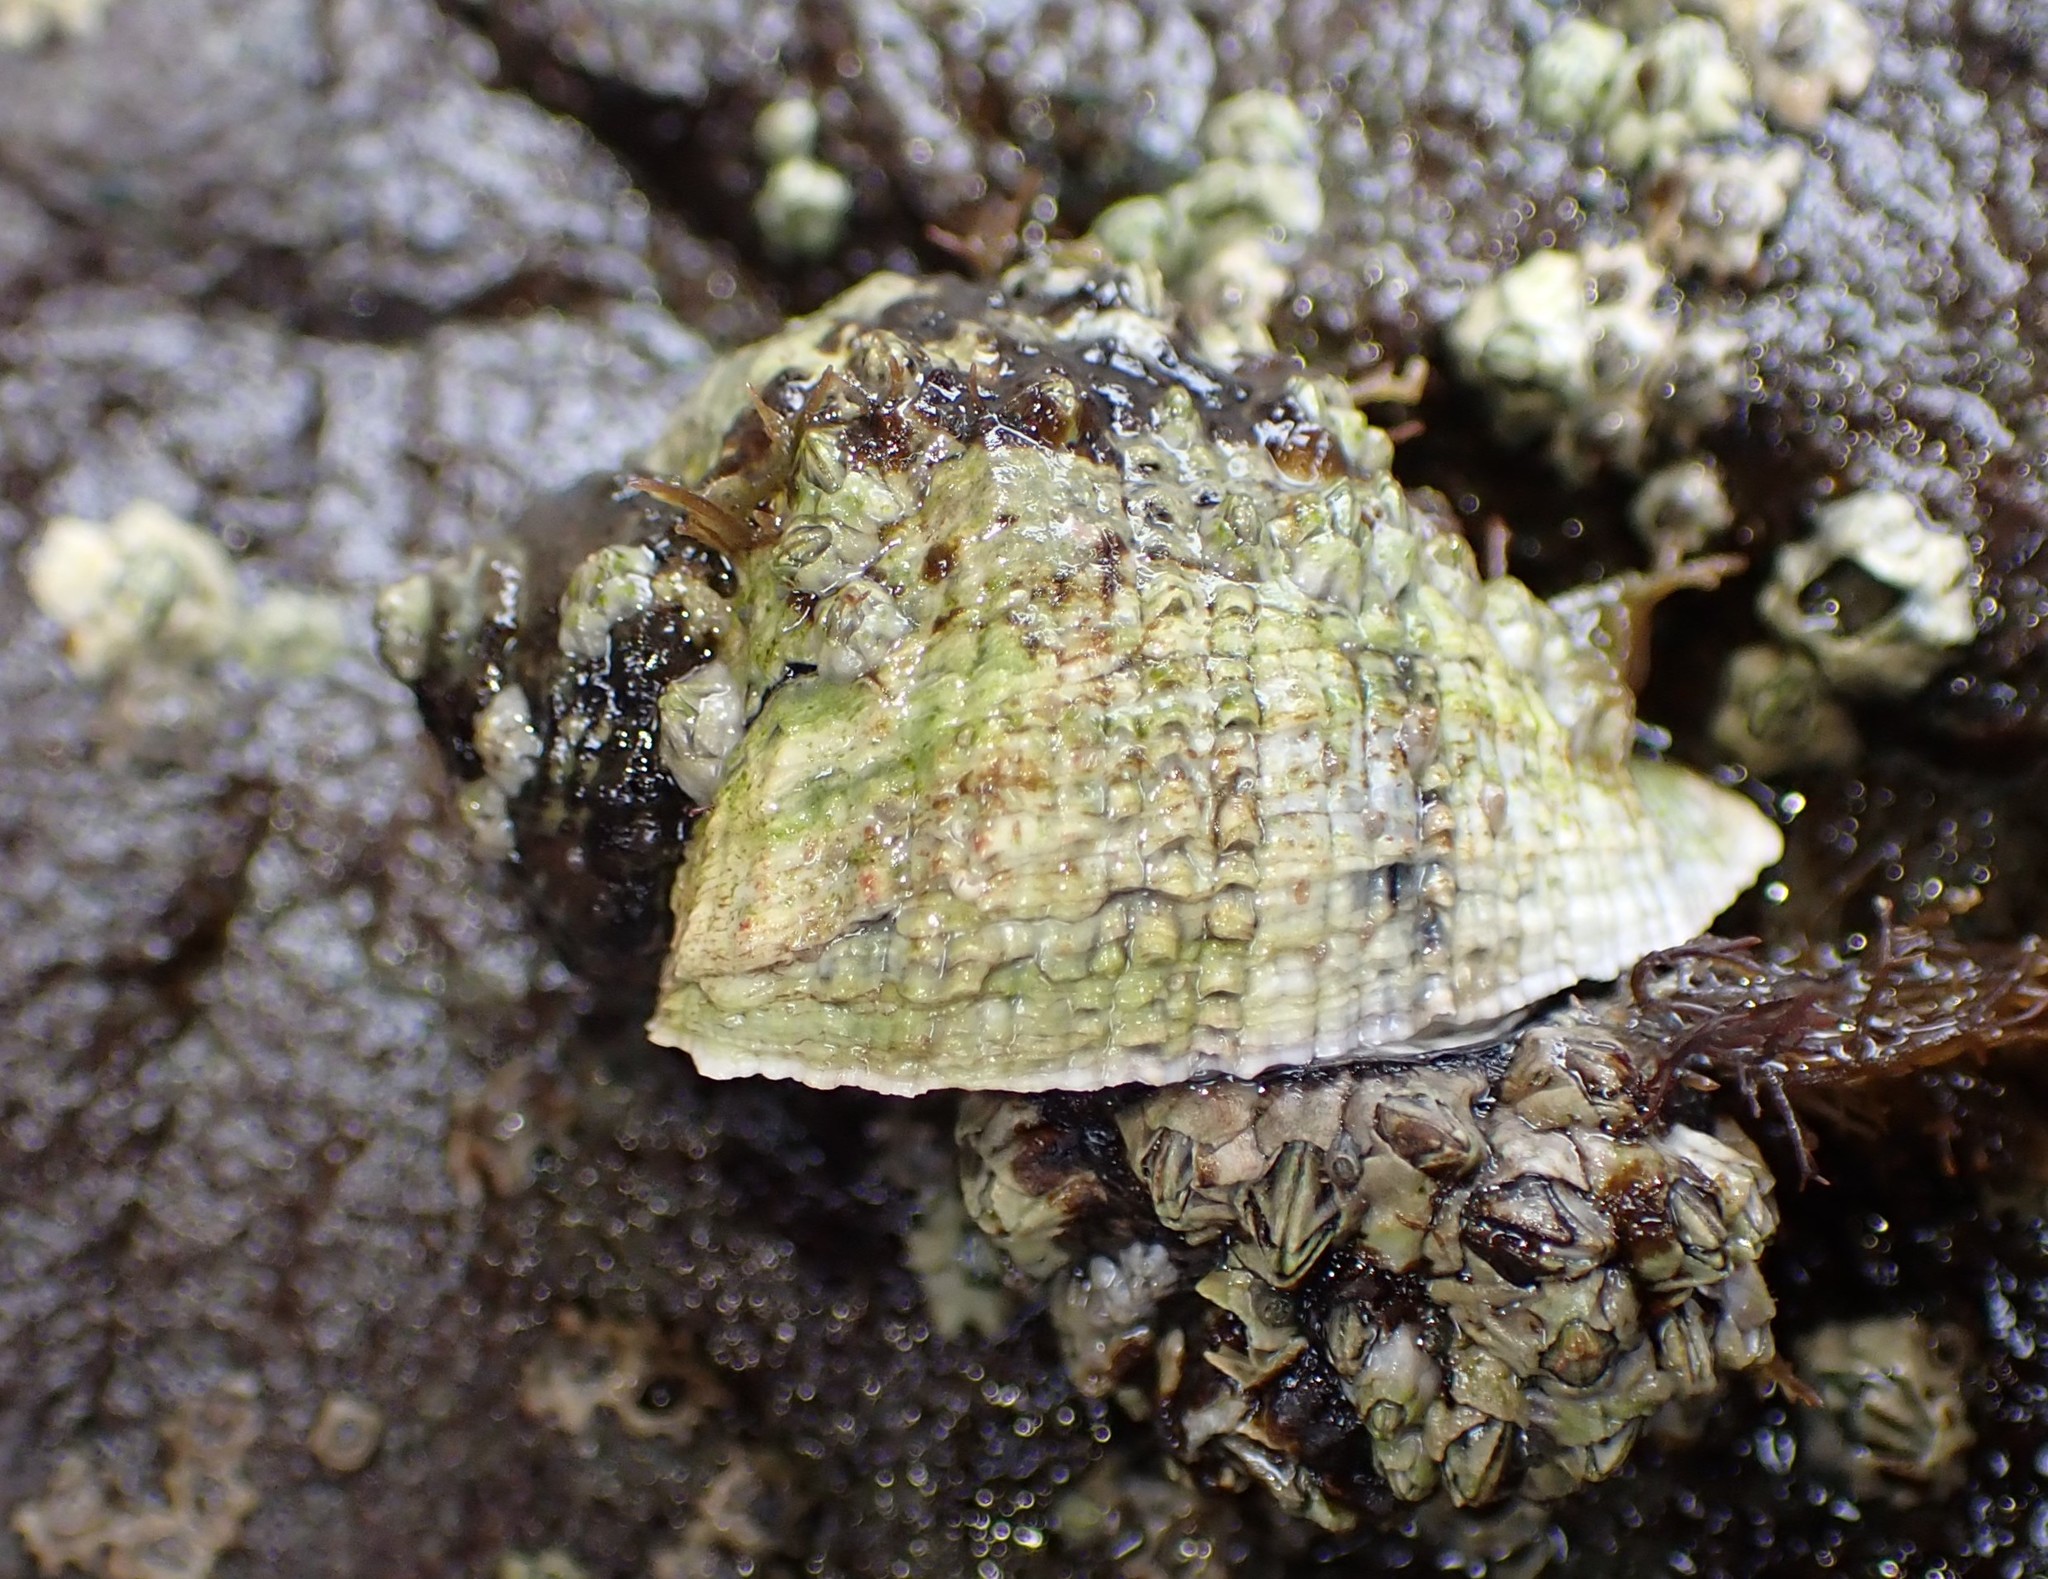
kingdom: Animalia
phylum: Mollusca
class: Gastropoda
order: Neogastropoda
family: Muricidae
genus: Haustrum
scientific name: Haustrum haustorium
